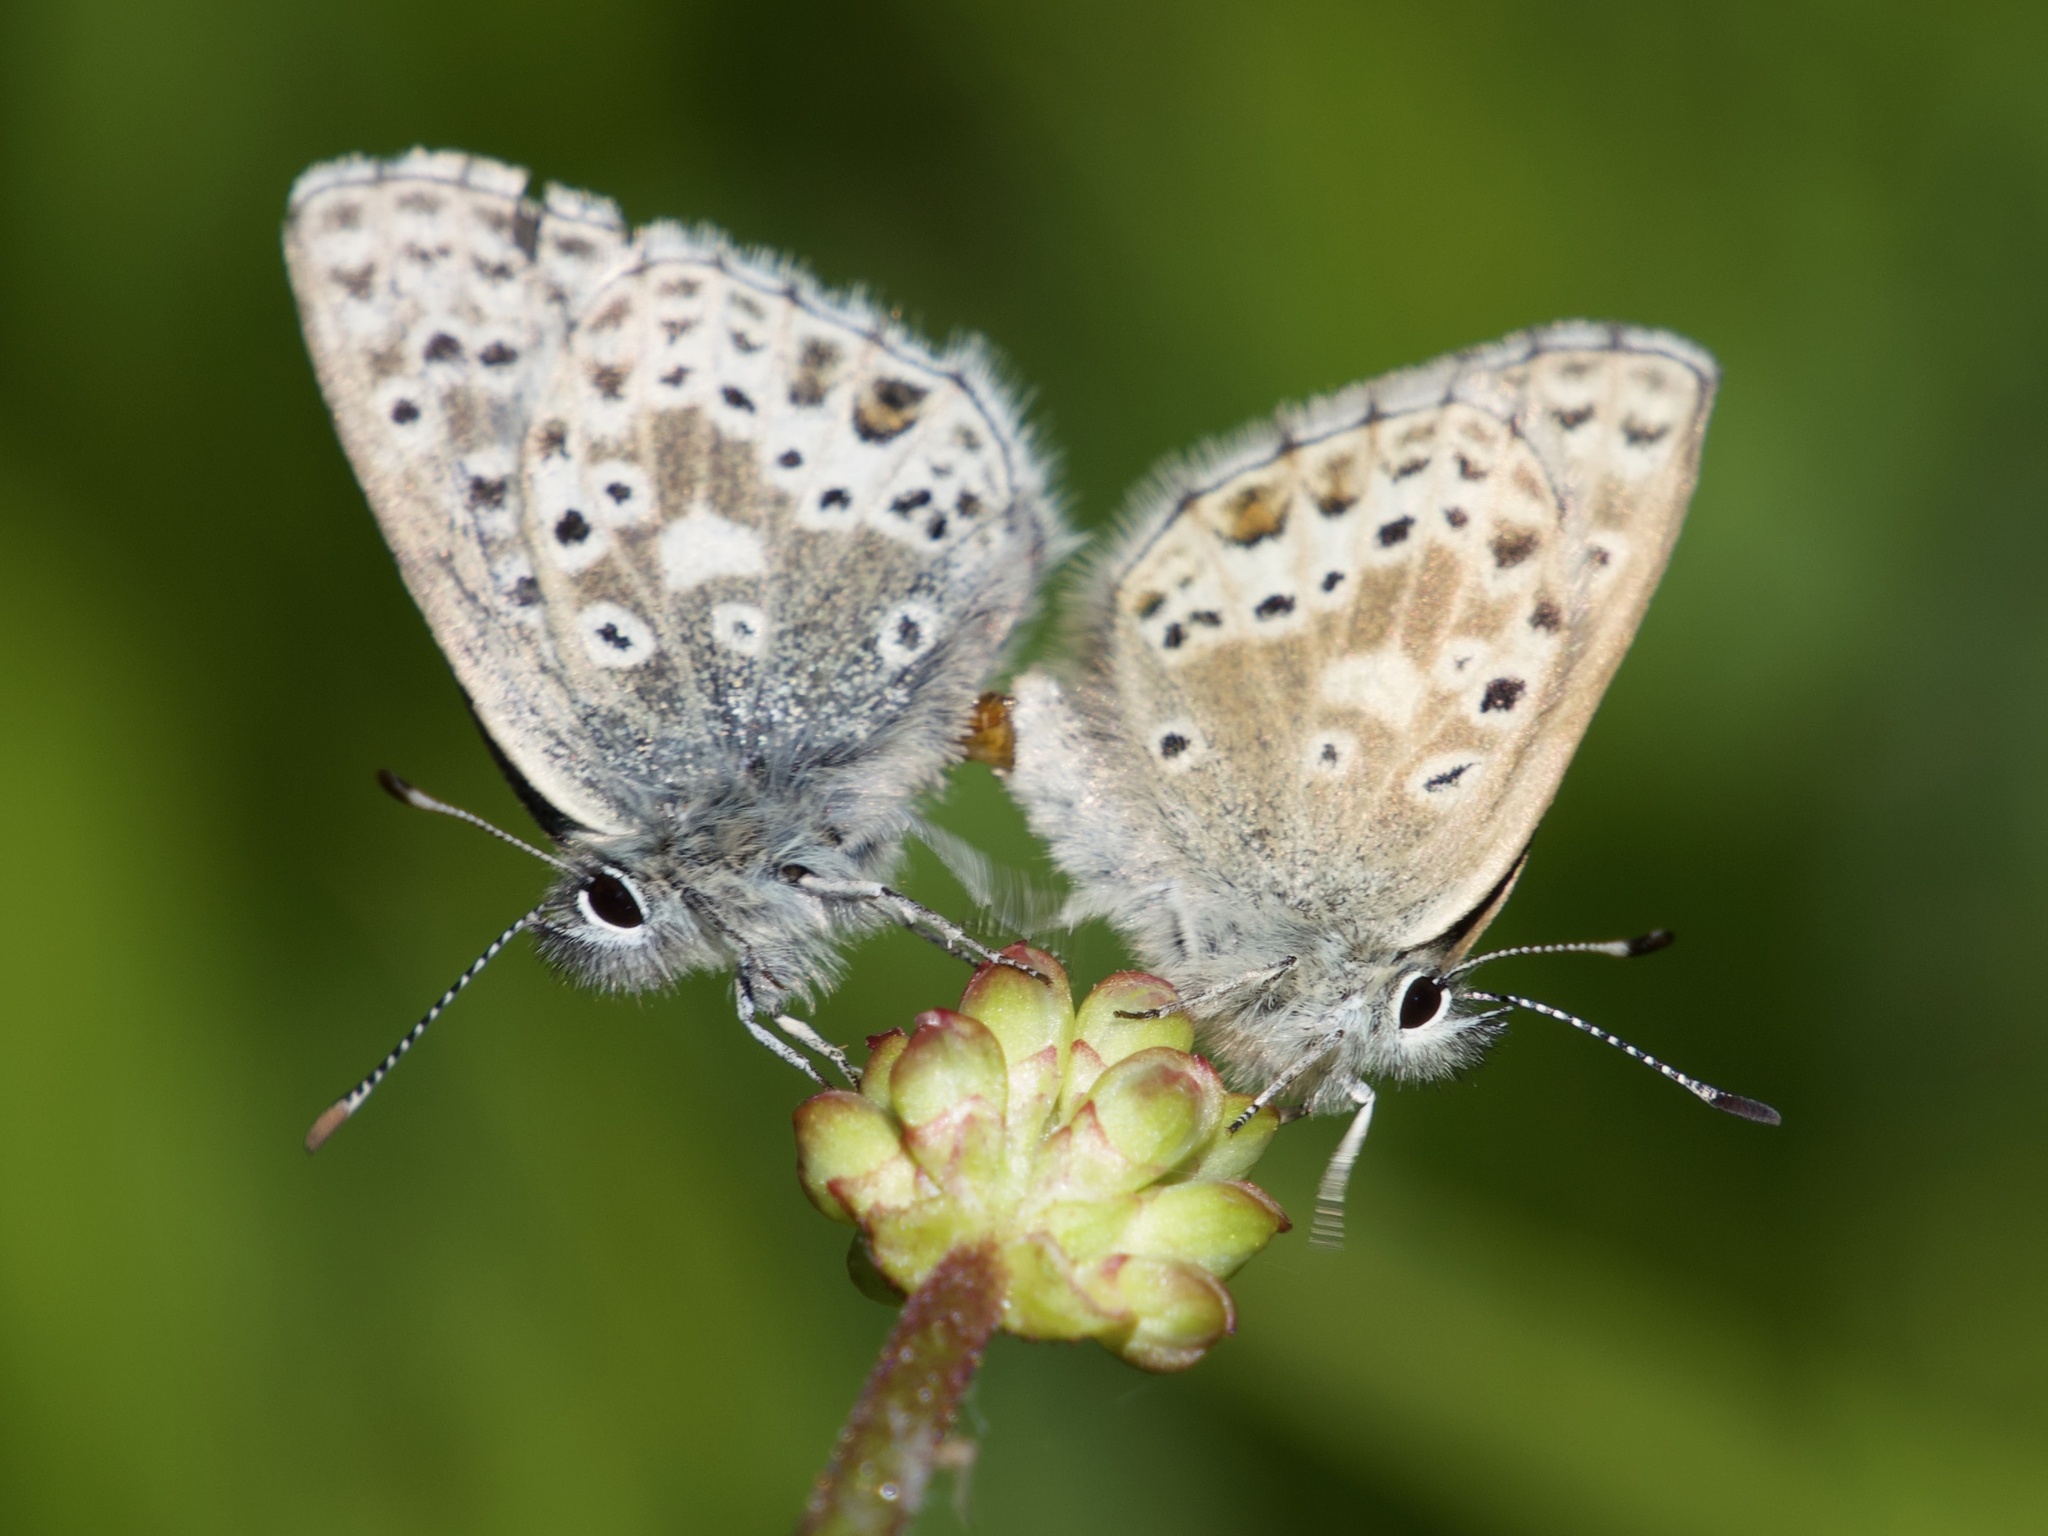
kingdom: Animalia
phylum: Arthropoda
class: Insecta
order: Lepidoptera
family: Lycaenidae
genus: Agriades
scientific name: Agriades podarce
